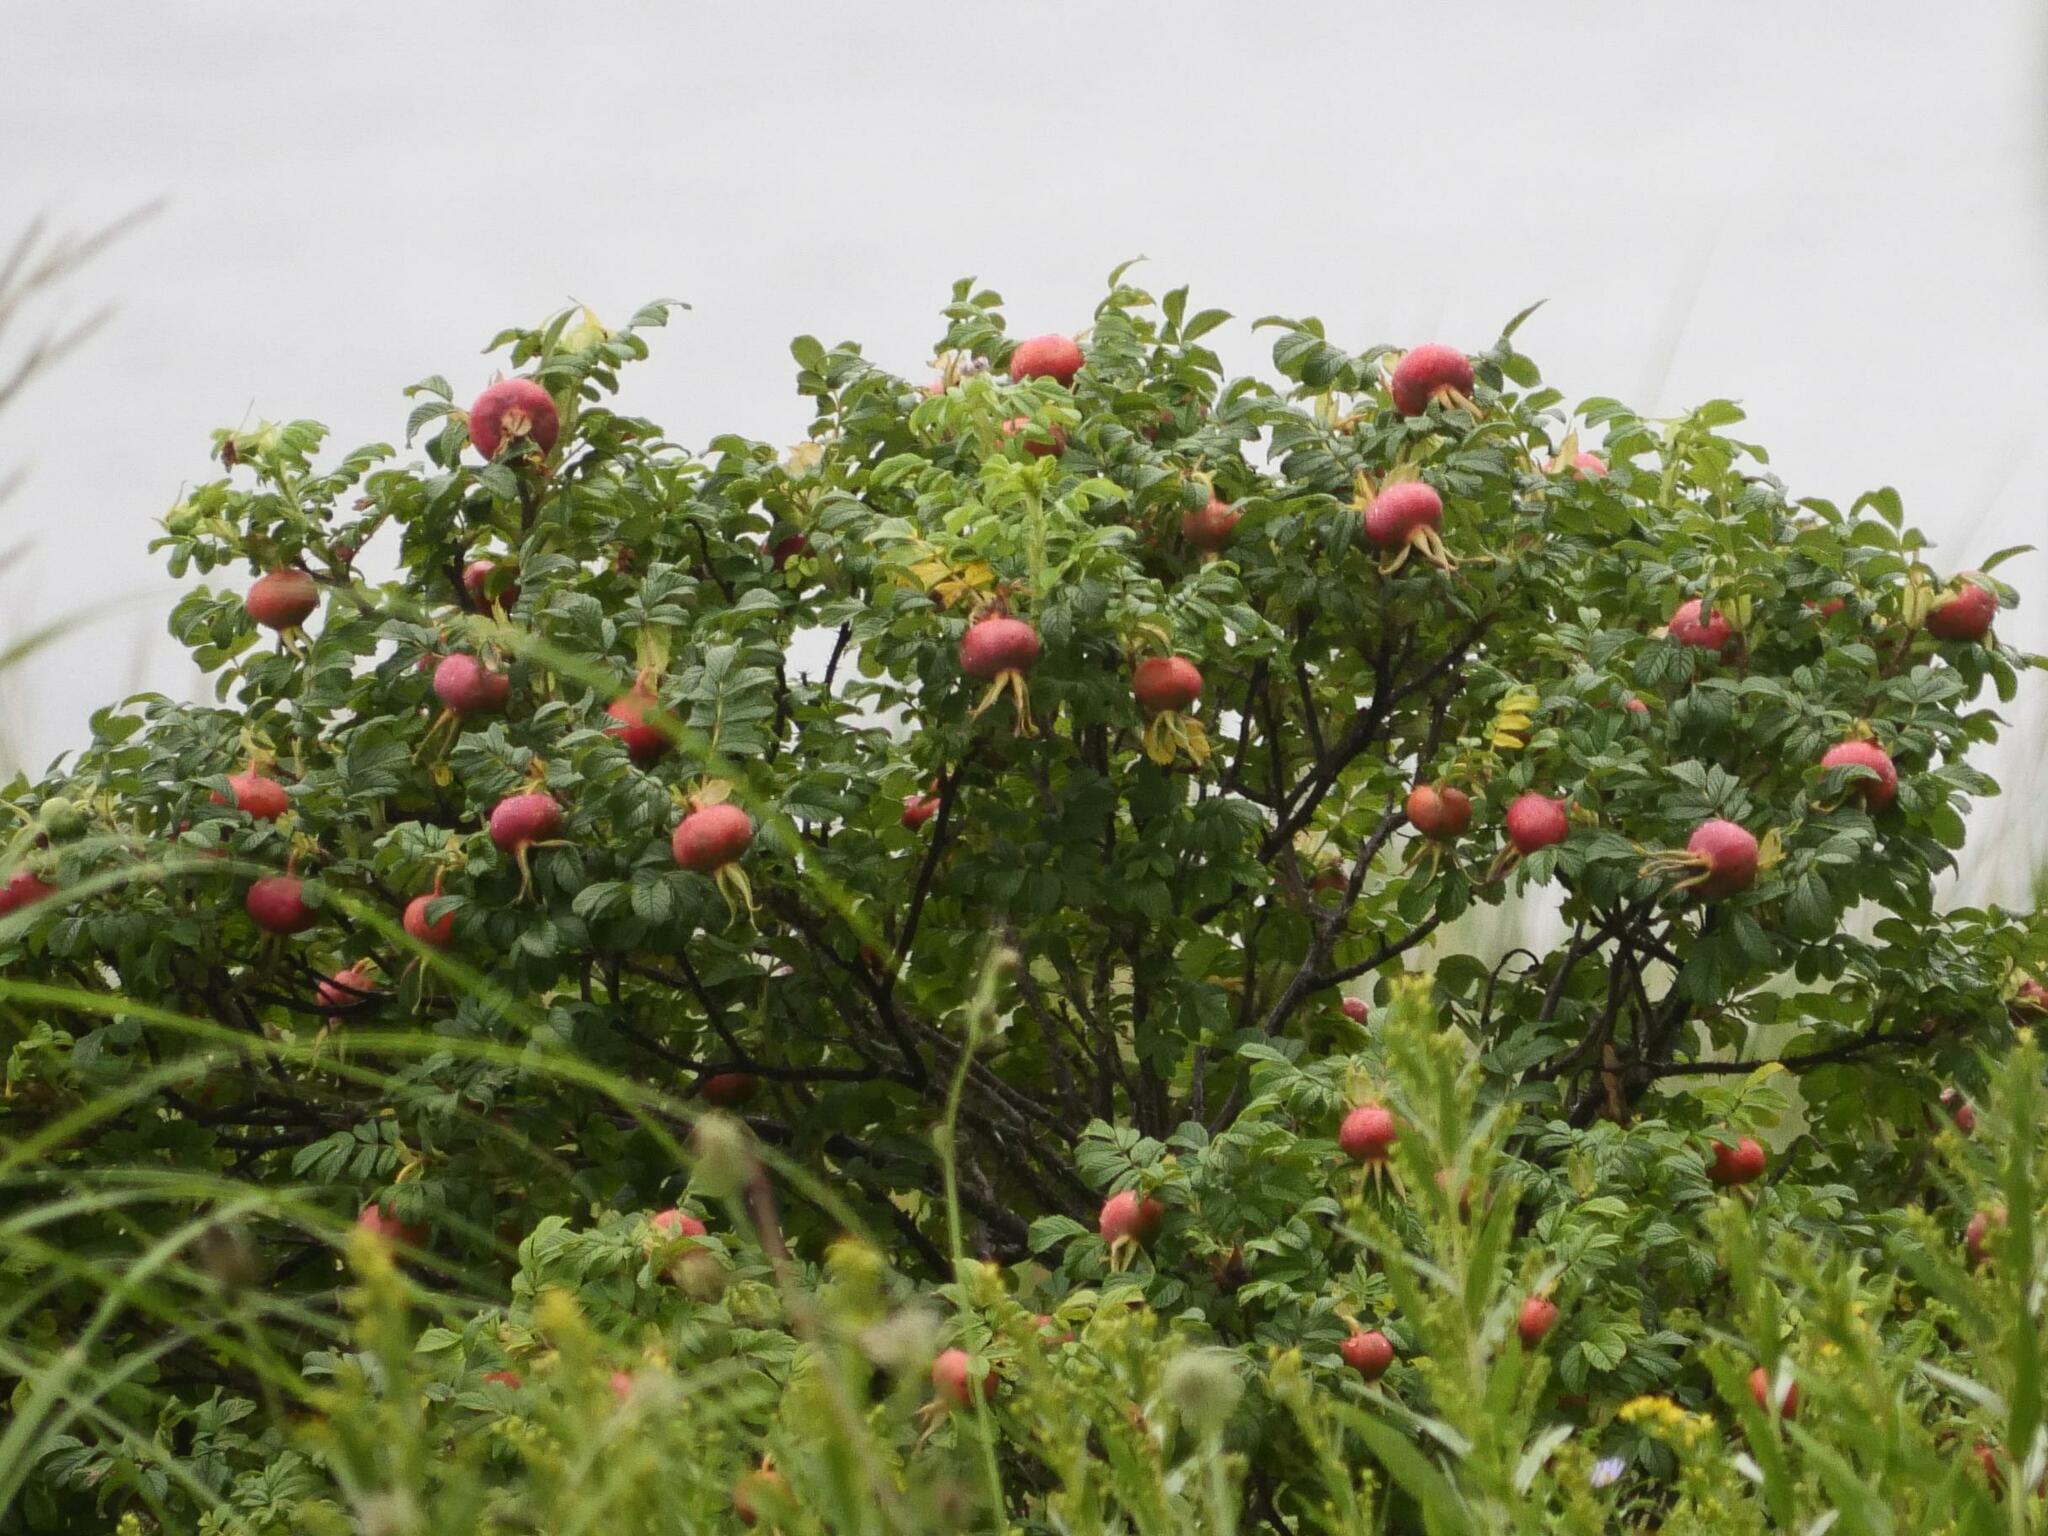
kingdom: Plantae
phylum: Tracheophyta
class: Magnoliopsida
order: Rosales
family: Rosaceae
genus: Rosa
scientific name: Rosa rugosa
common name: Japanese rose
